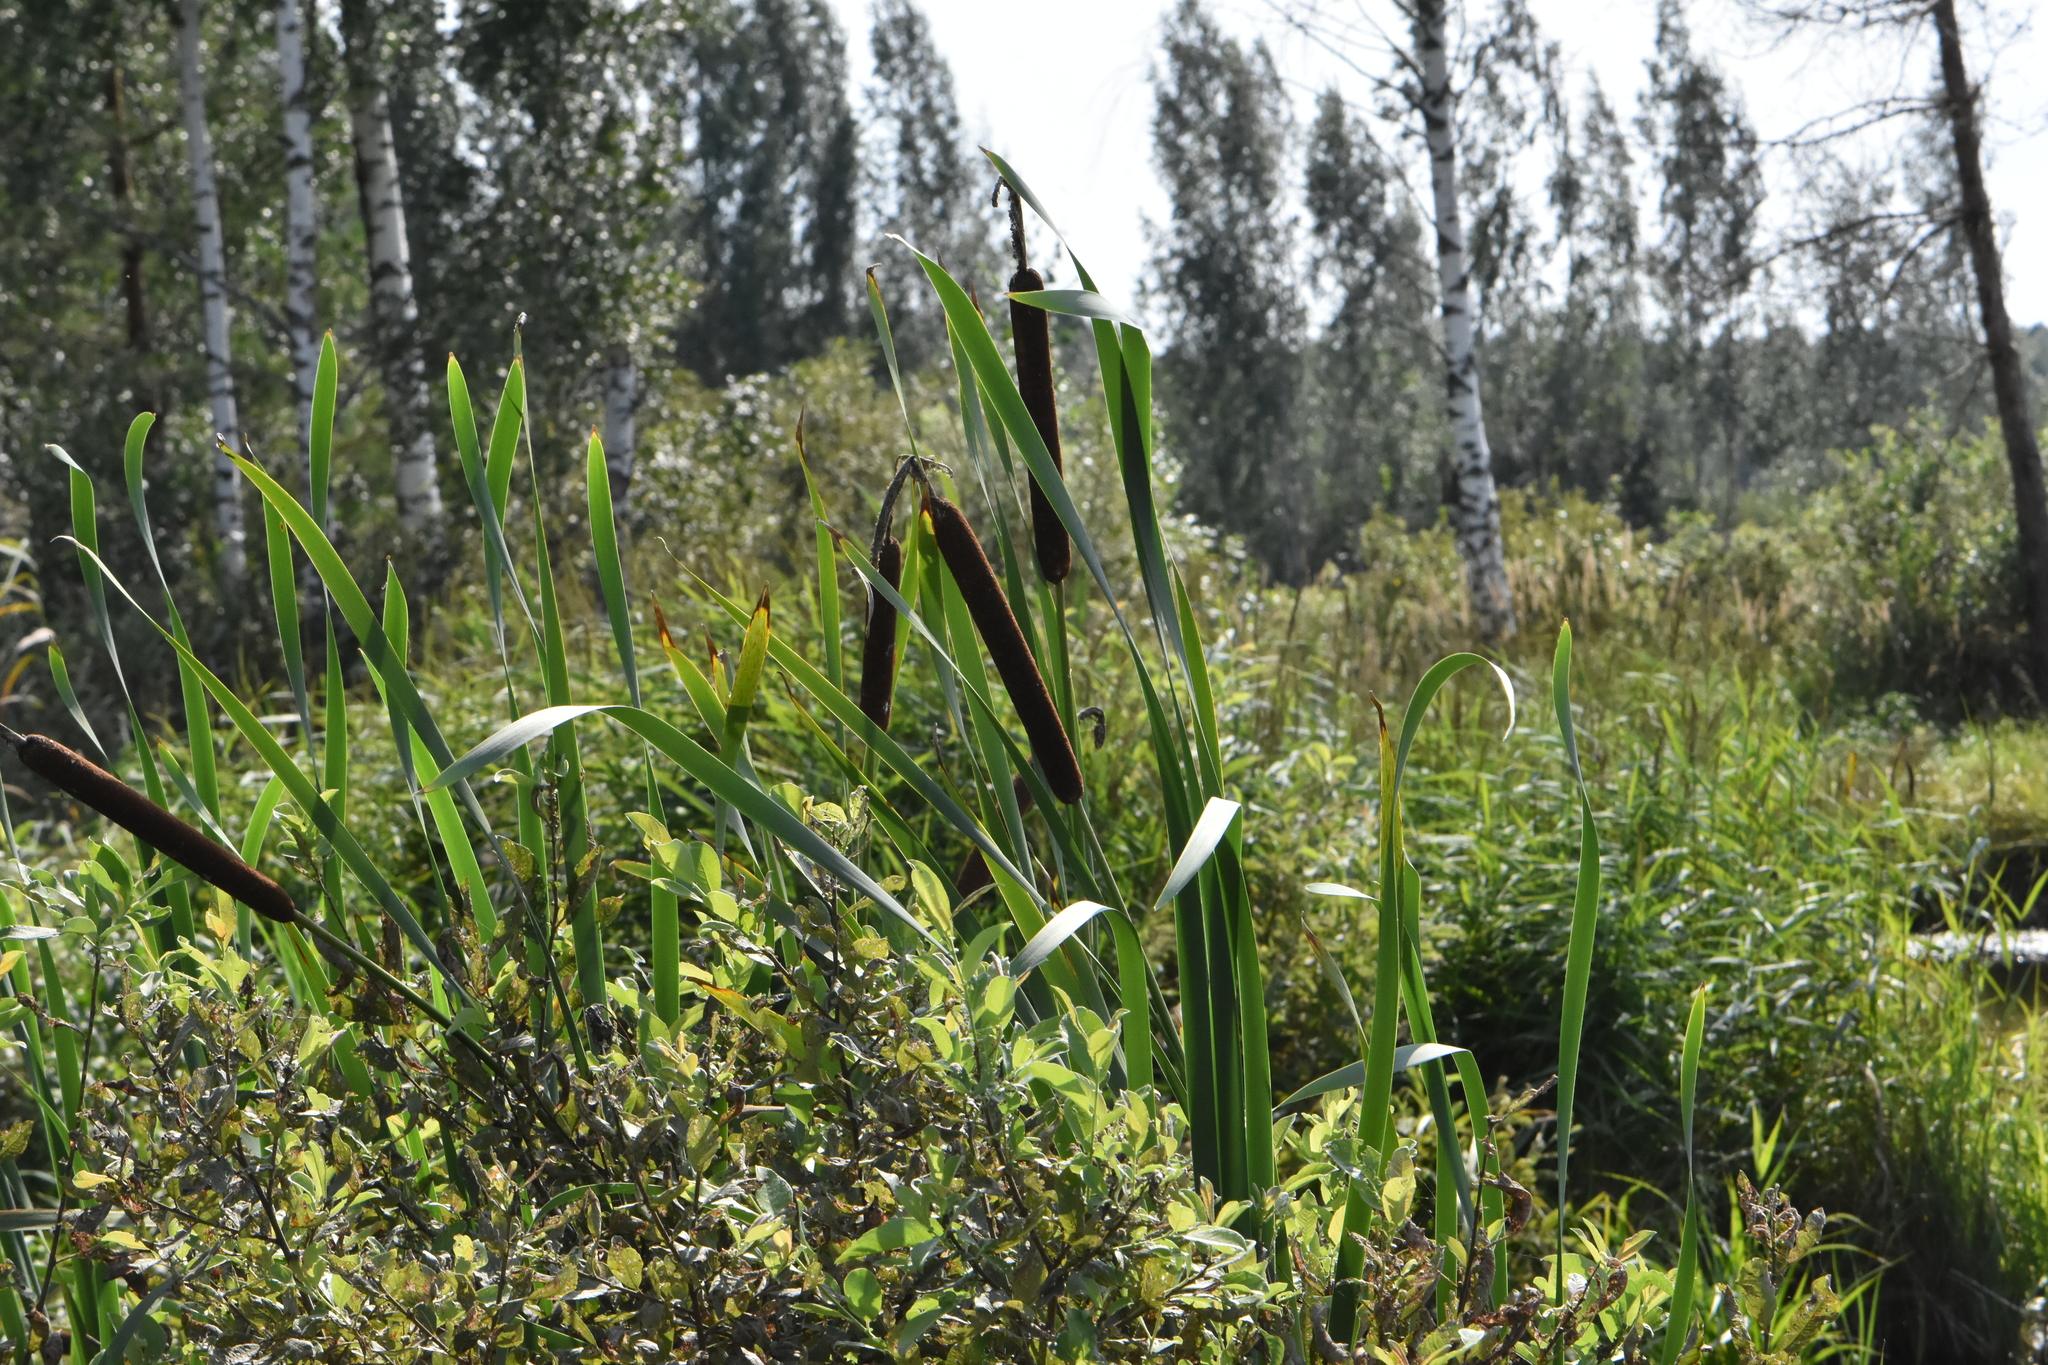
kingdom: Plantae
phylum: Tracheophyta
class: Liliopsida
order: Poales
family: Typhaceae
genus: Typha
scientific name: Typha latifolia
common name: Broadleaf cattail
